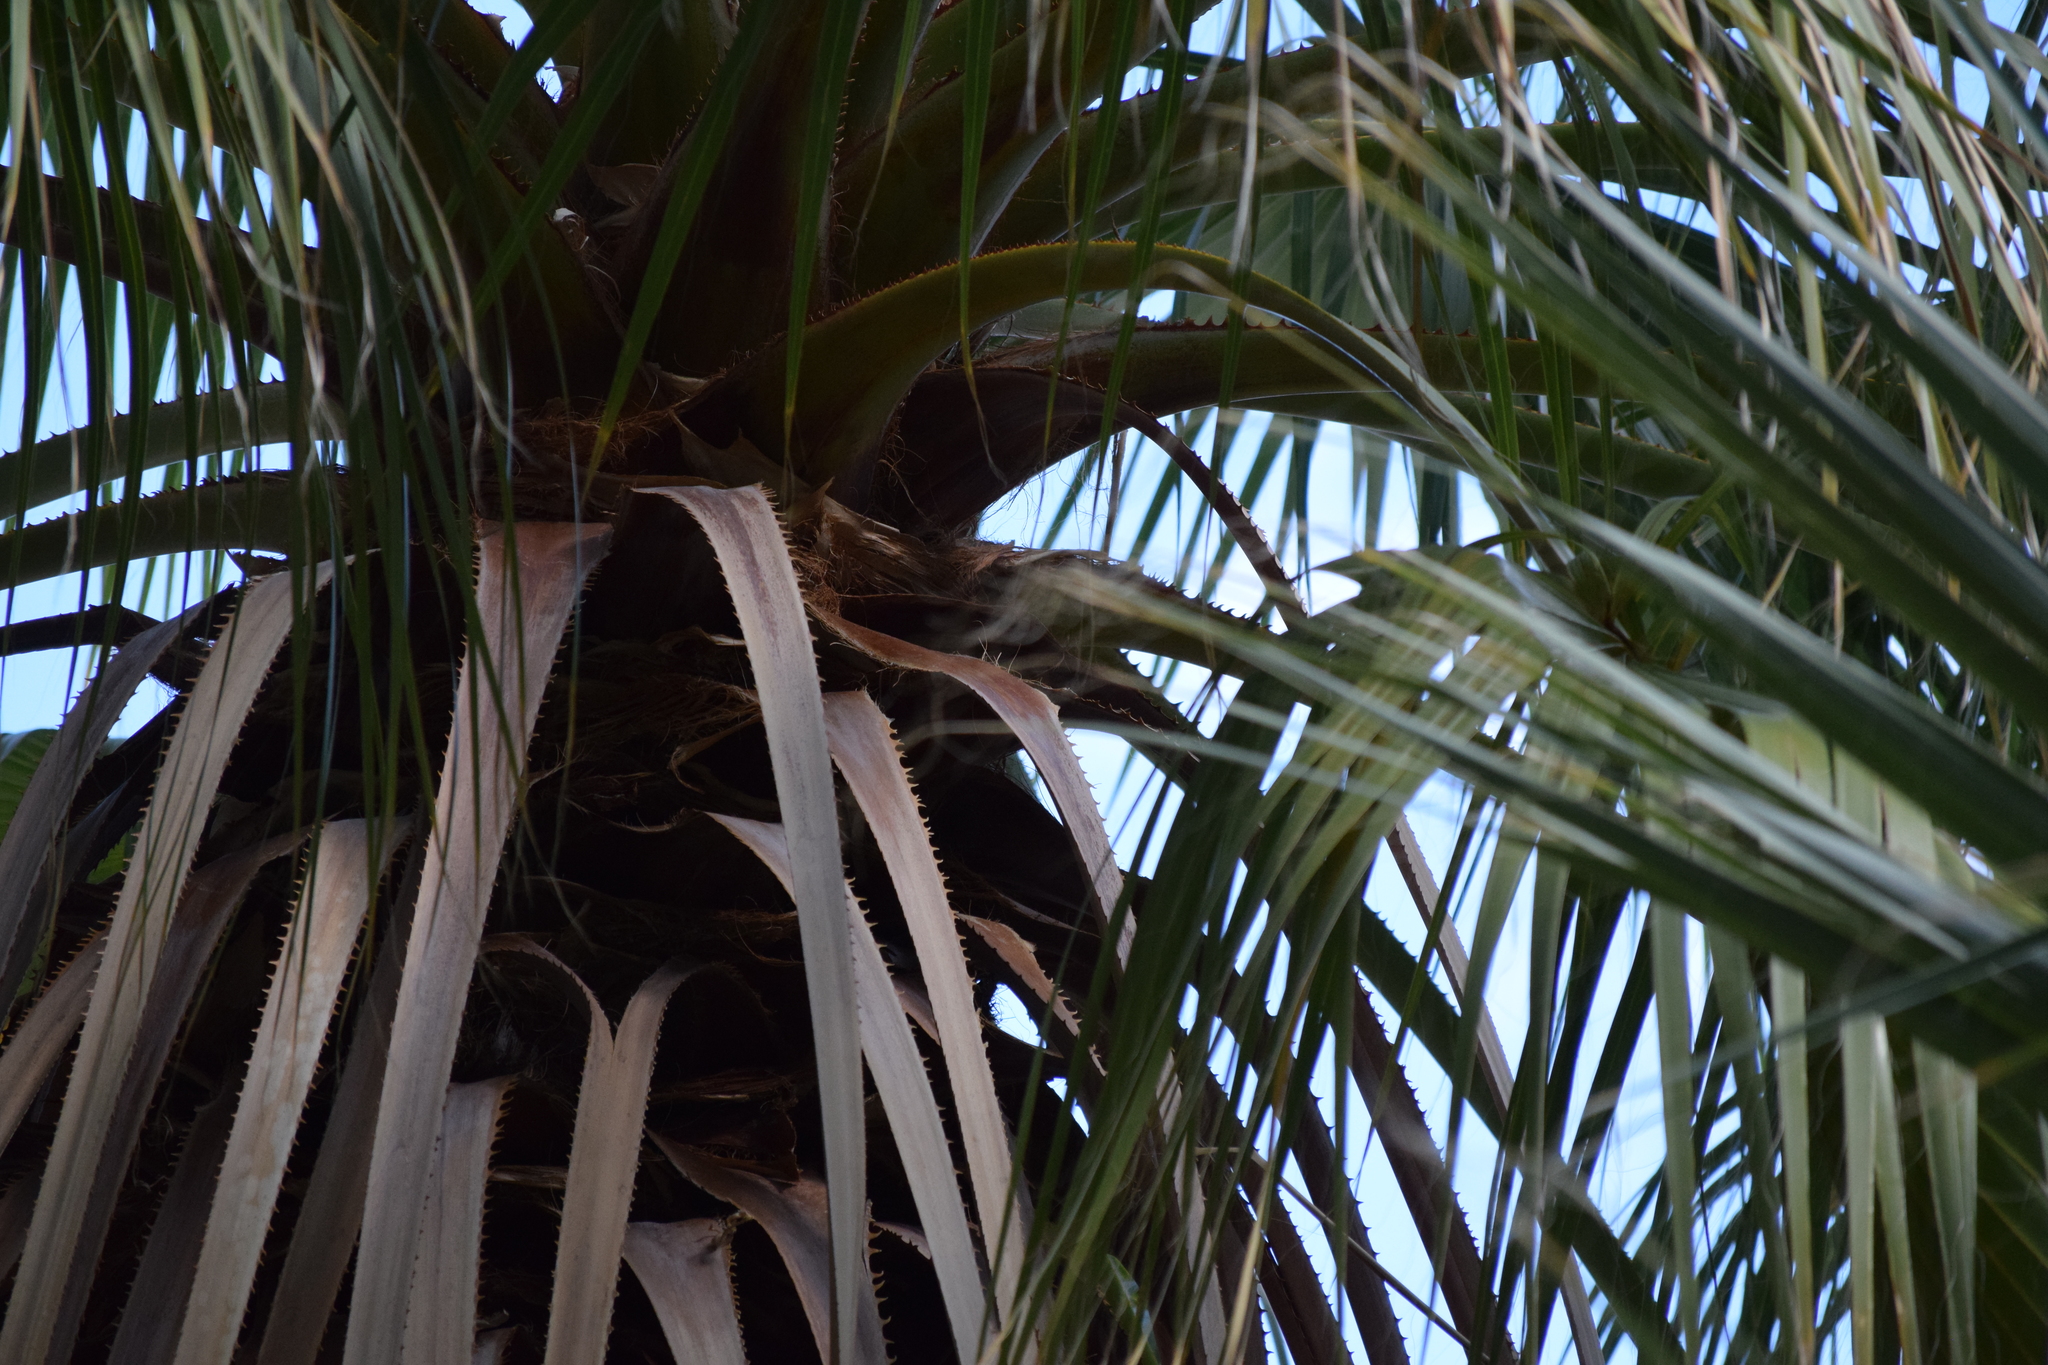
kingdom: Plantae
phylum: Tracheophyta
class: Liliopsida
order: Arecales
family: Arecaceae
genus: Washingtonia
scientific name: Washingtonia filifera
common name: California fan palm
